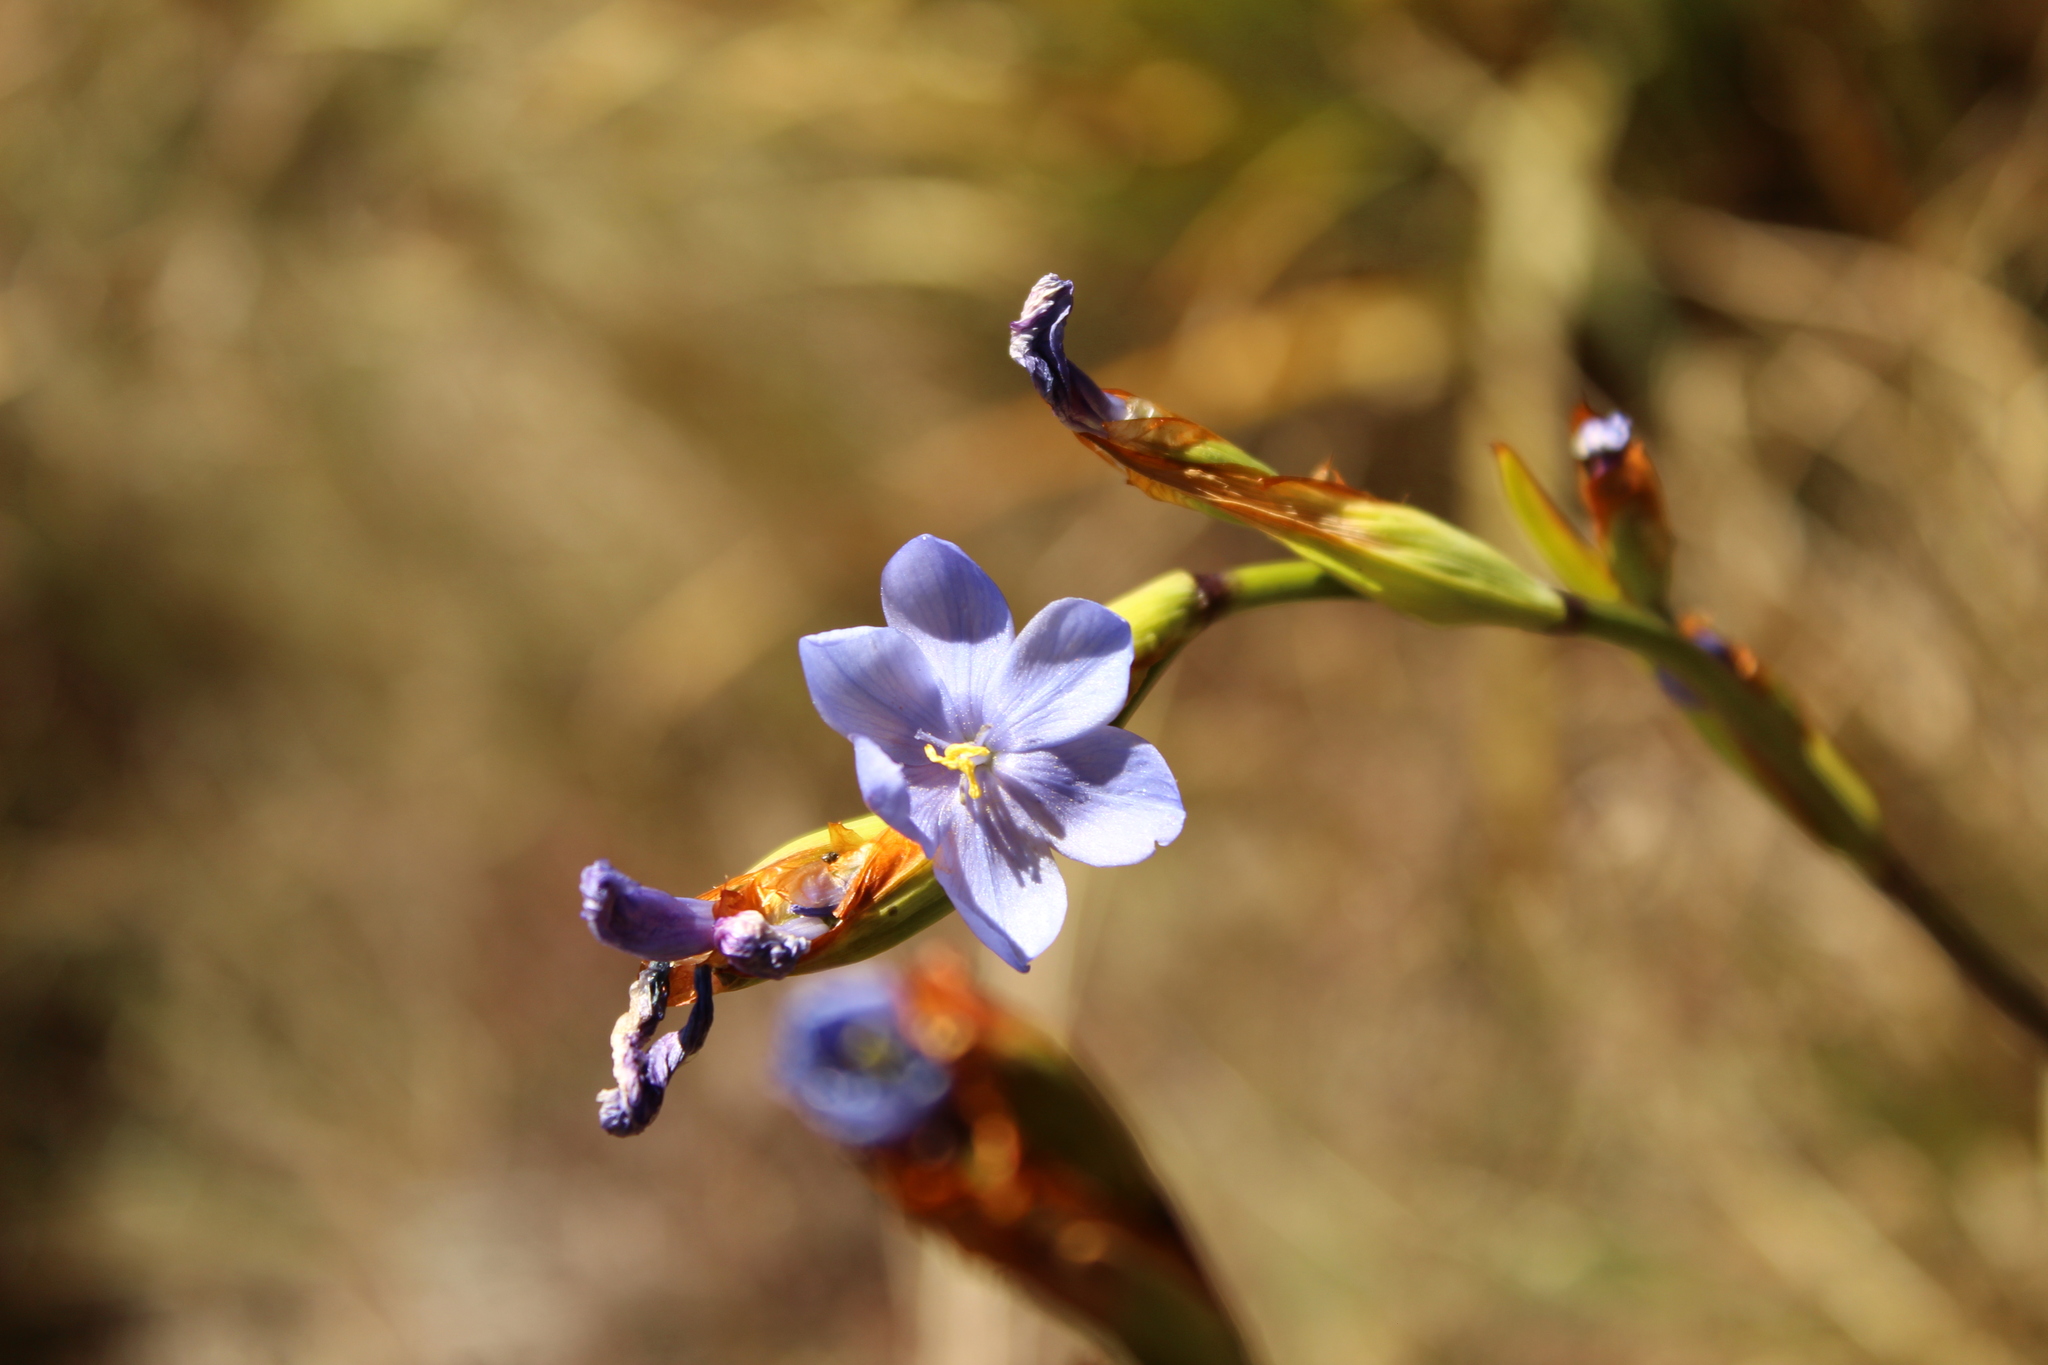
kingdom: Plantae
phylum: Tracheophyta
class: Liliopsida
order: Asparagales
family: Iridaceae
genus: Orthrosanthus
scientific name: Orthrosanthus chimboracensis
